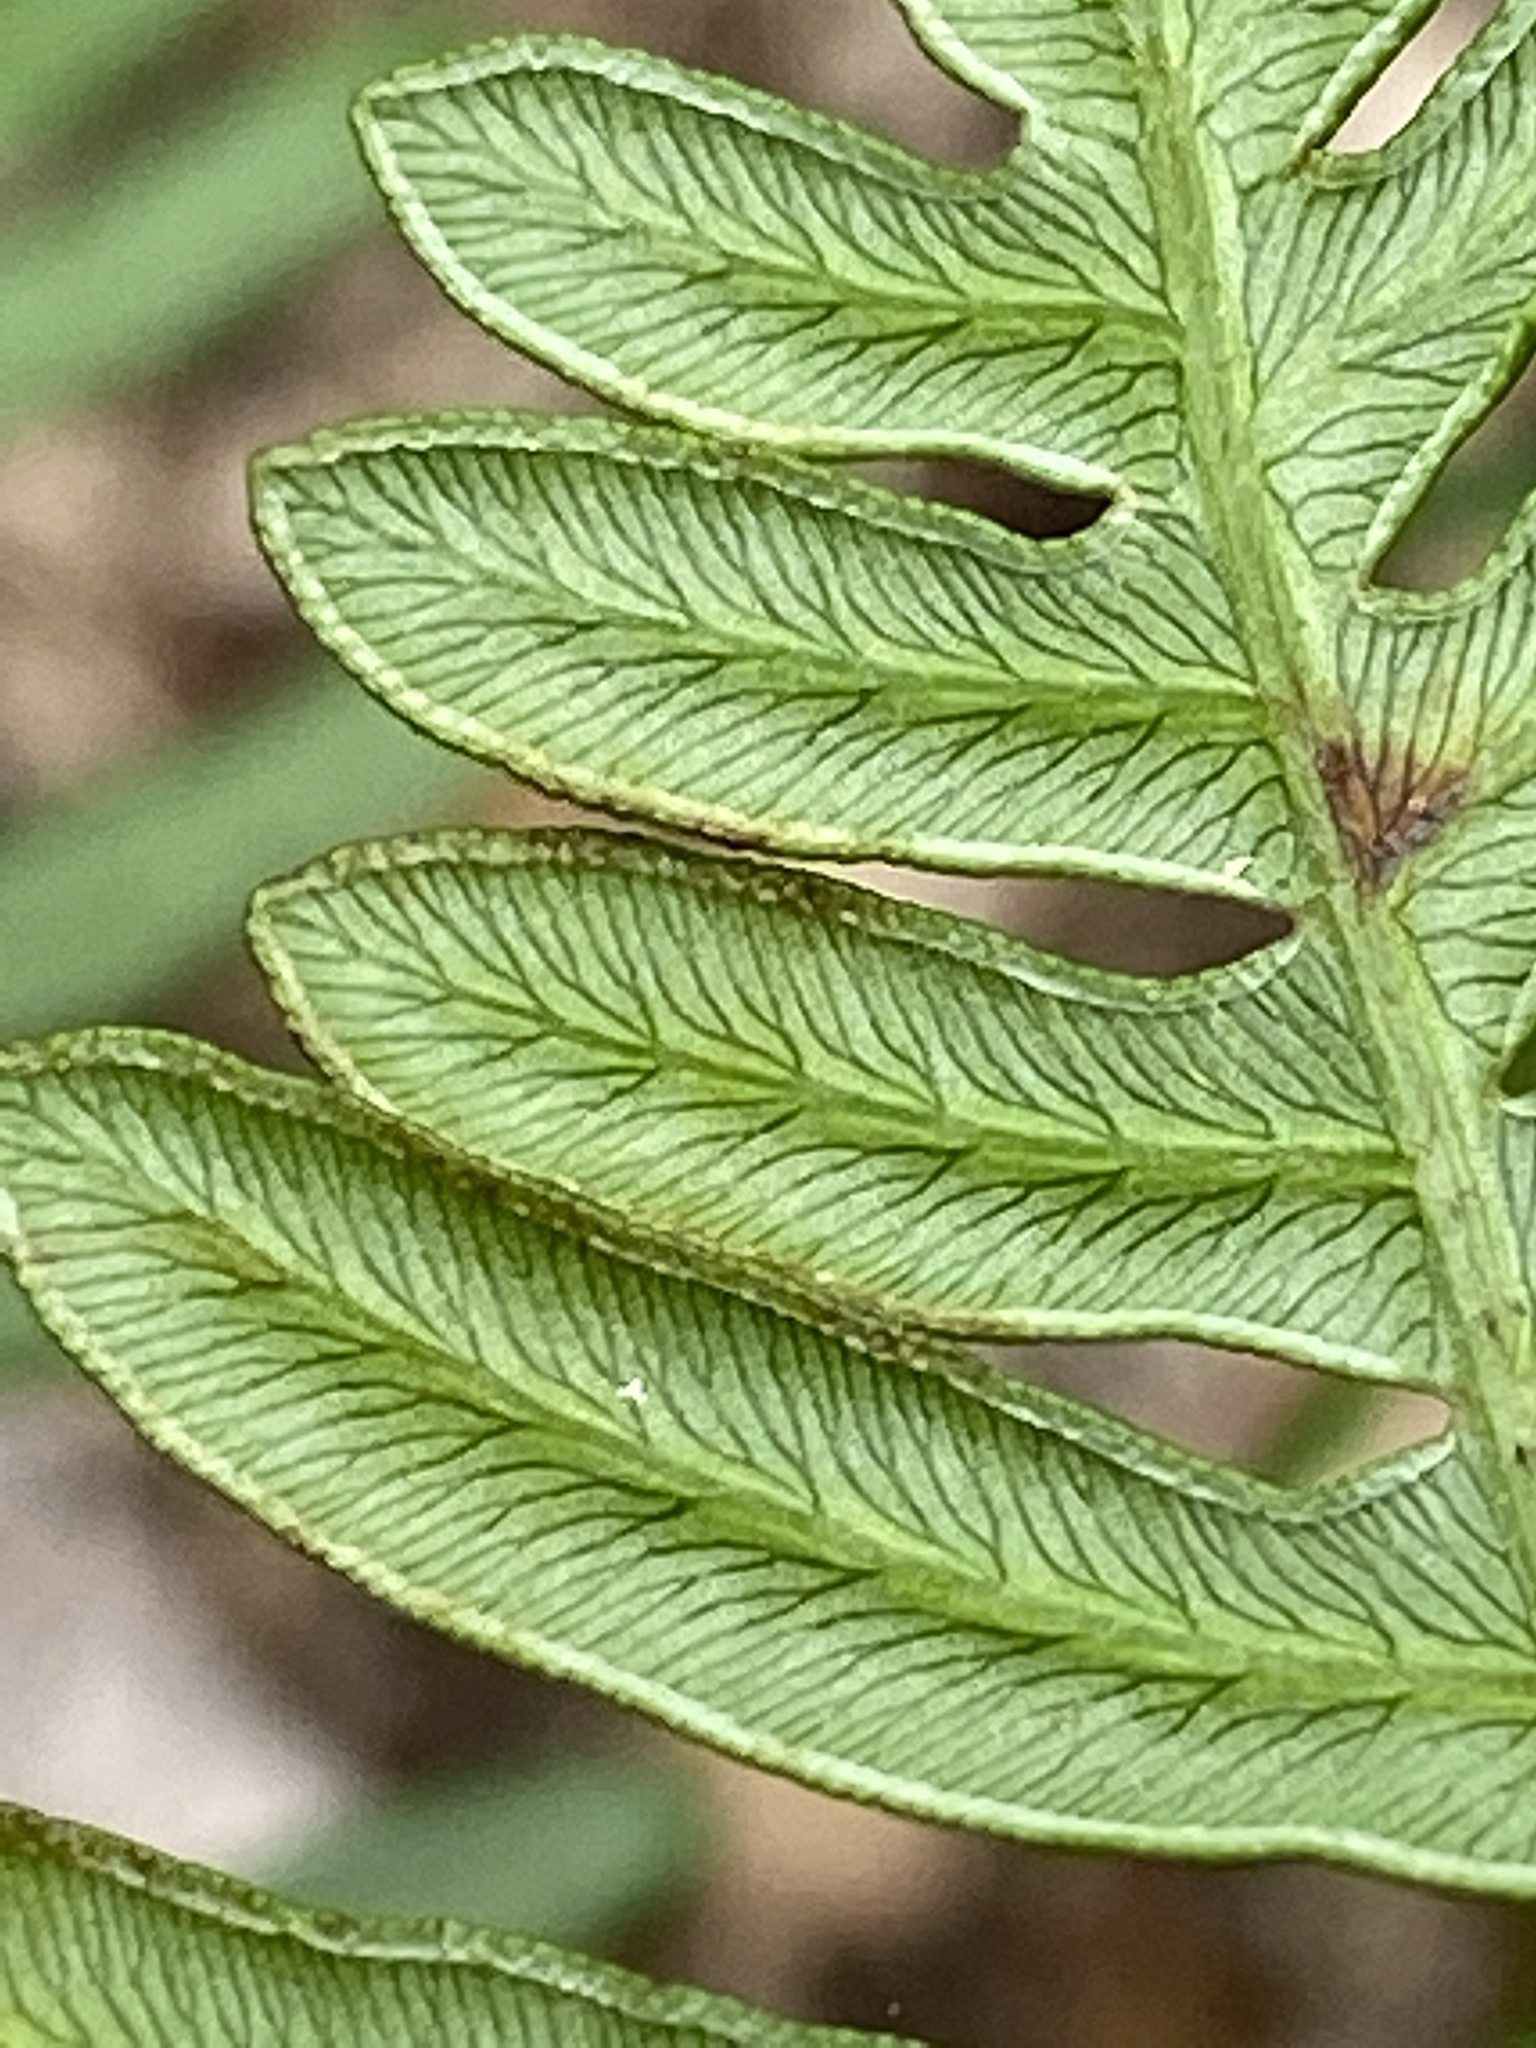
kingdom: Plantae
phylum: Tracheophyta
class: Polypodiopsida
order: Polypodiales
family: Dennstaedtiaceae
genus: Pteridium
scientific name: Pteridium
